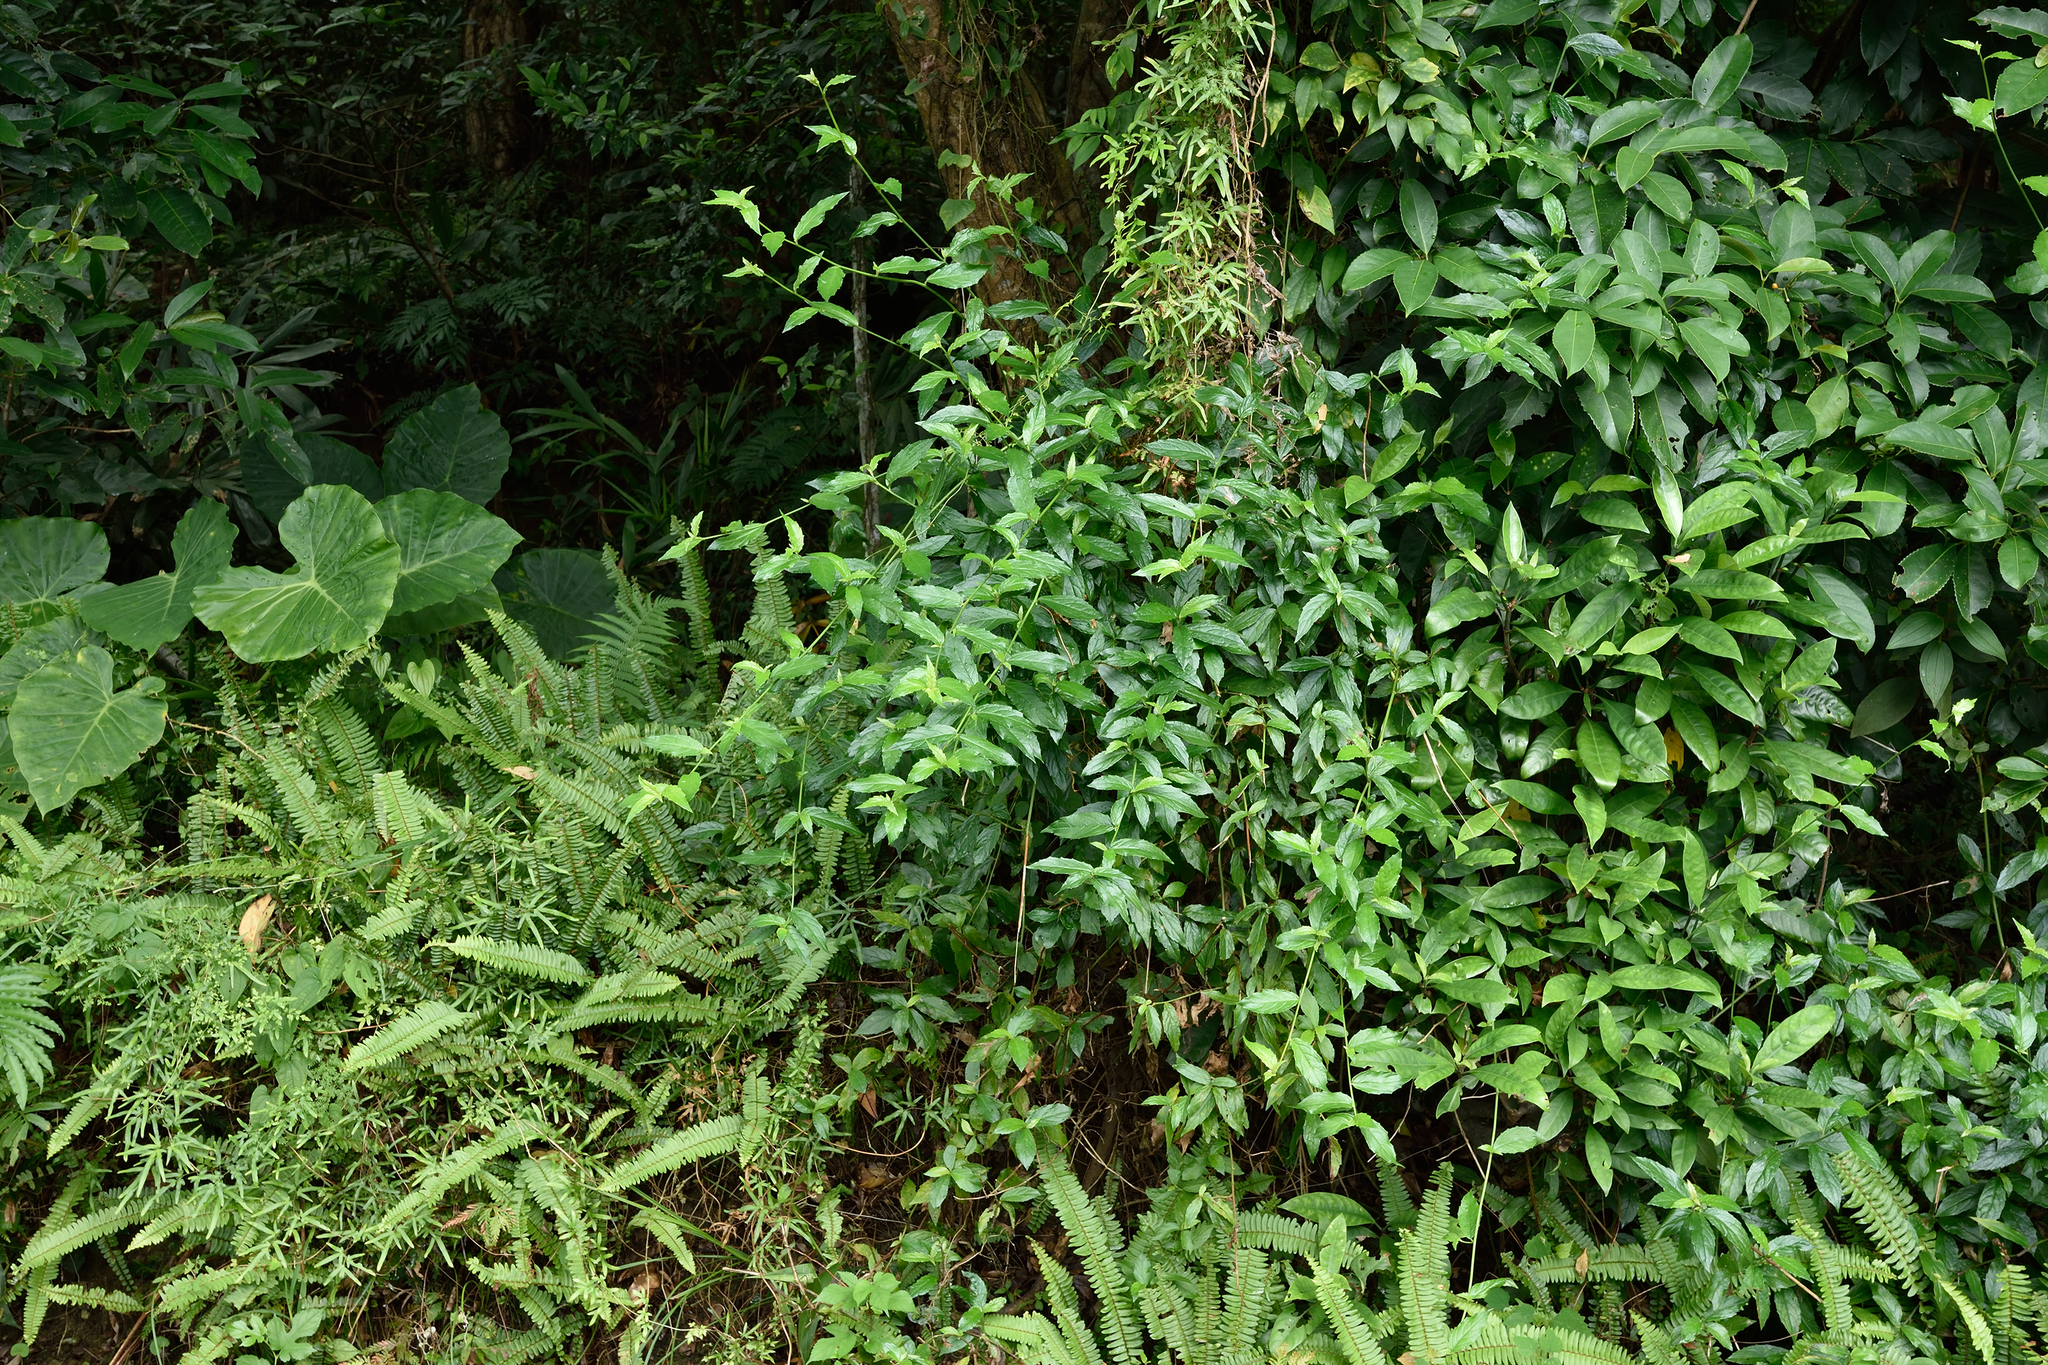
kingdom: Plantae
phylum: Tracheophyta
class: Magnoliopsida
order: Asterales
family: Asteraceae
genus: Blumea
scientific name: Blumea megacephala
